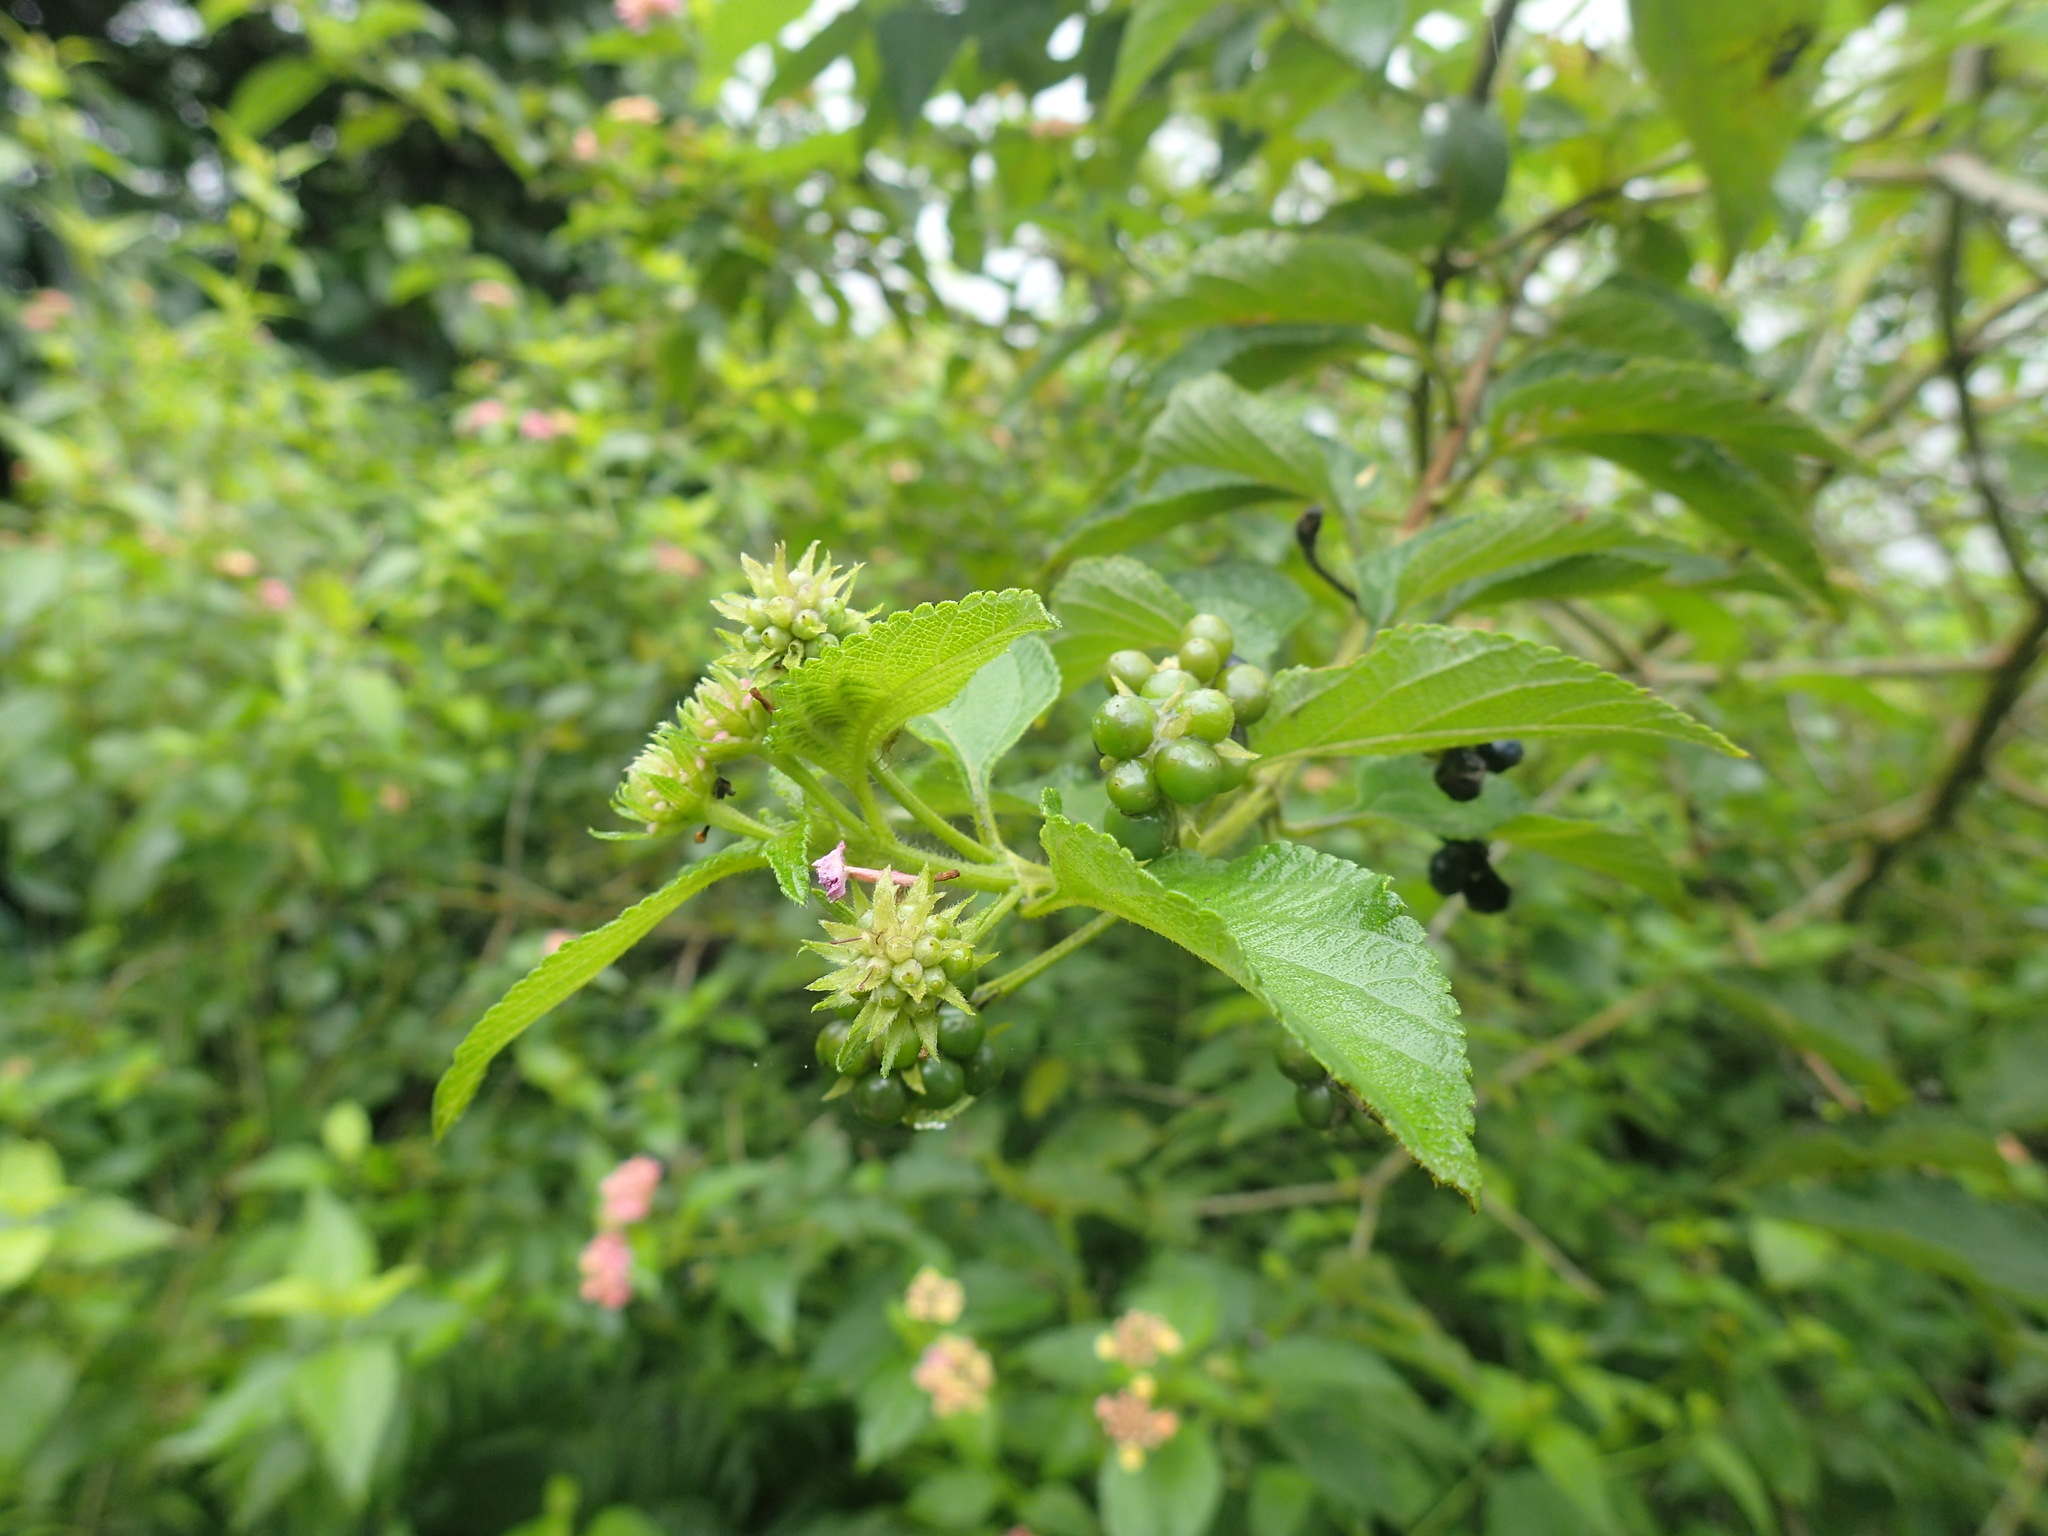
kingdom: Plantae
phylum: Tracheophyta
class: Magnoliopsida
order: Lamiales
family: Verbenaceae
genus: Lantana
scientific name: Lantana camara
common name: Lantana
